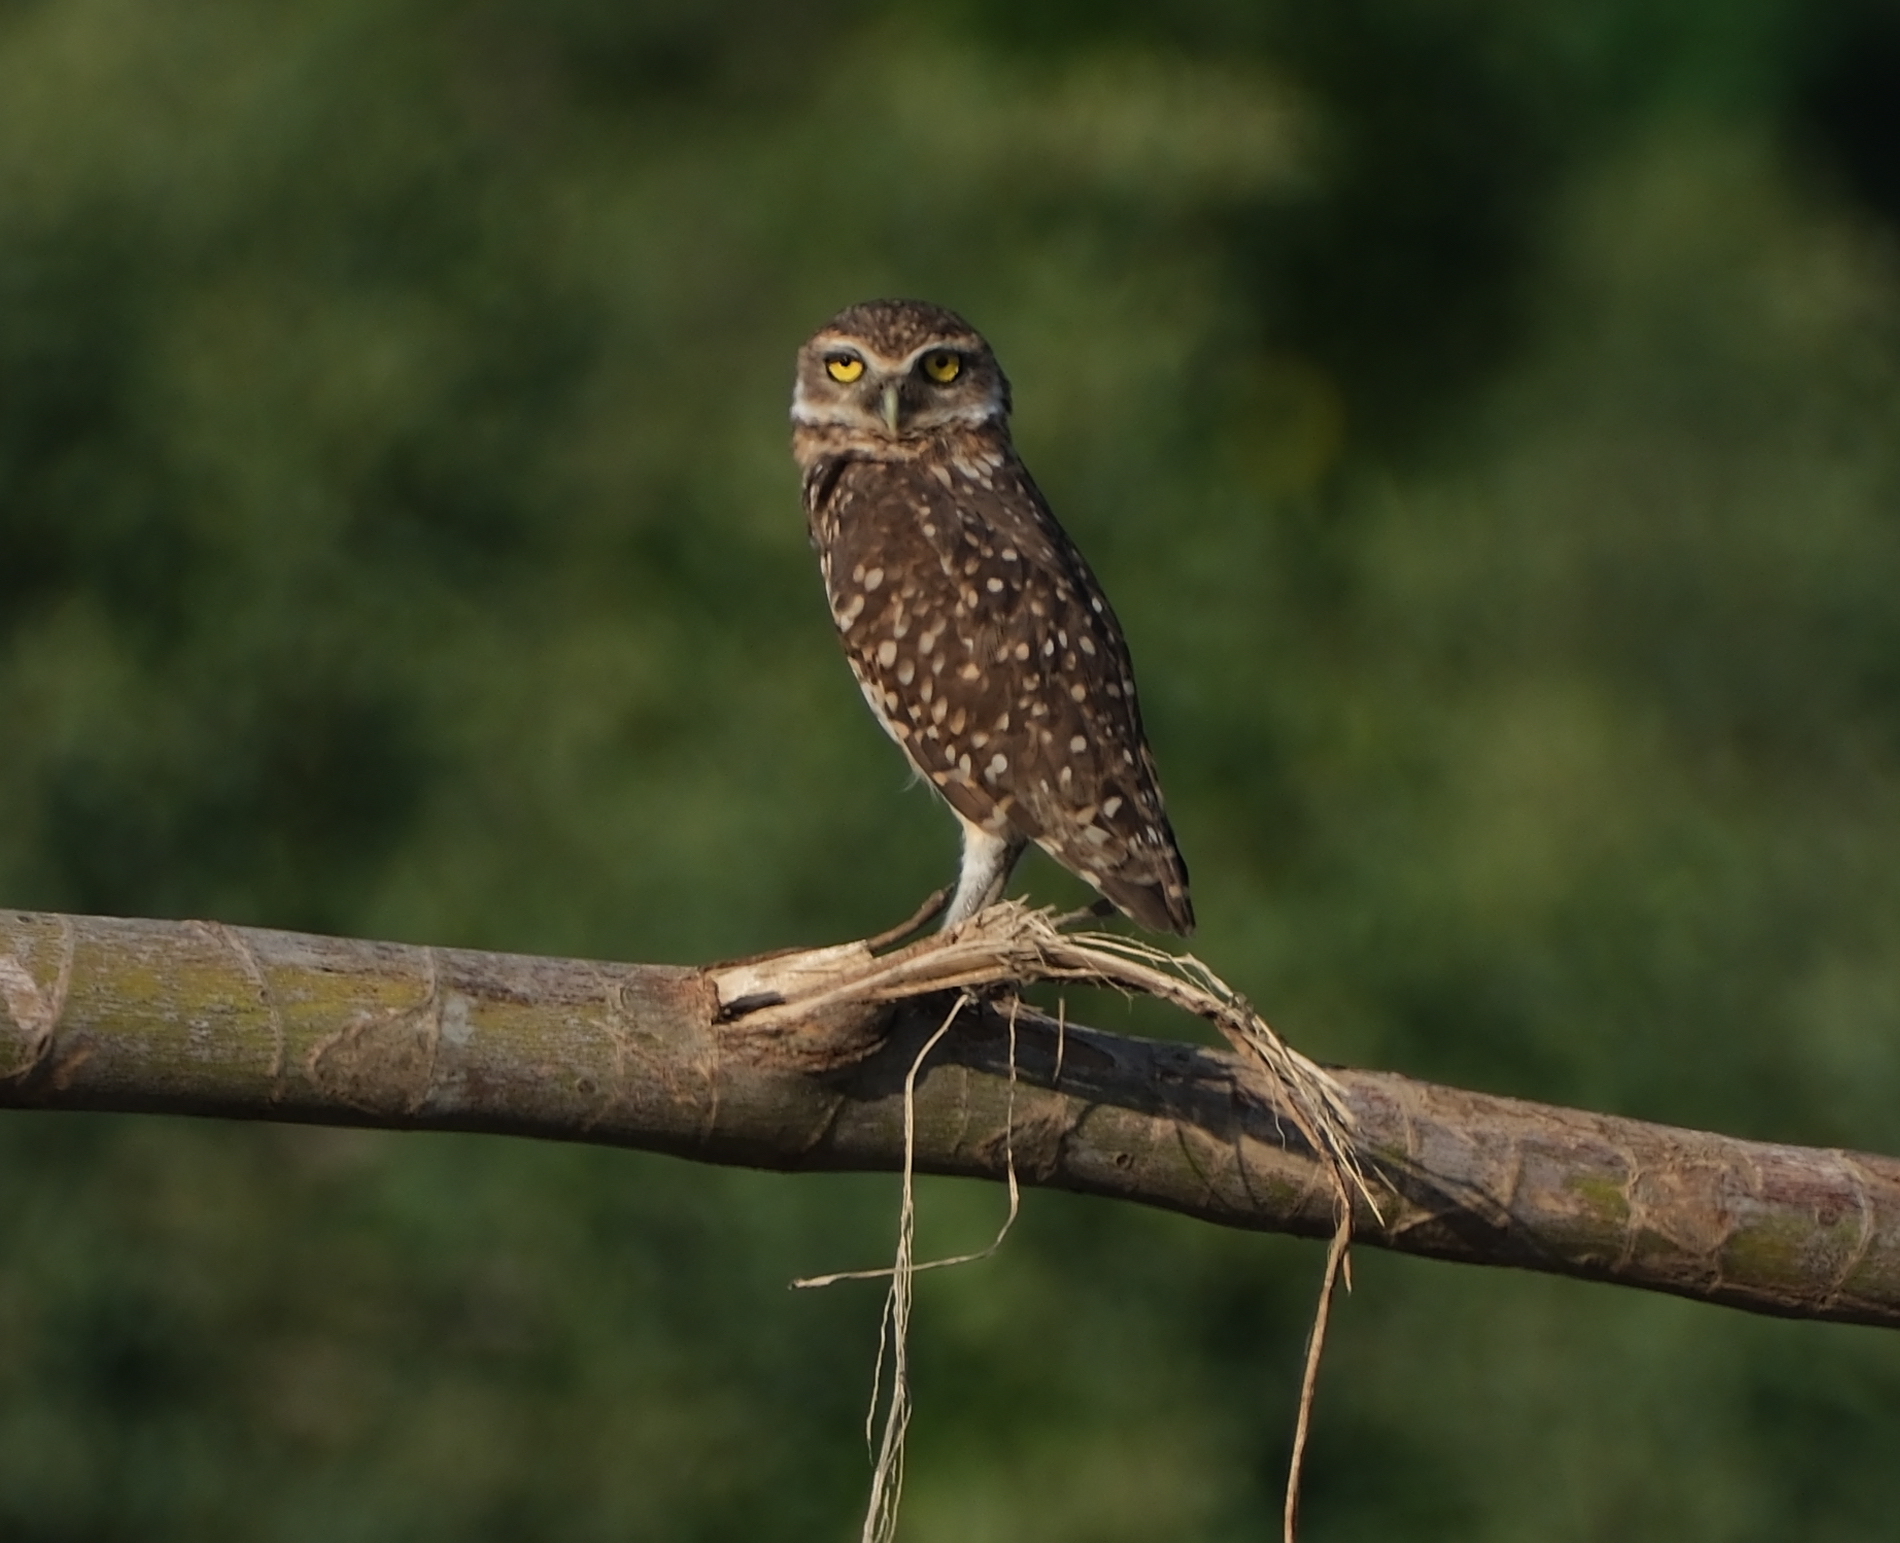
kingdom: Animalia
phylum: Chordata
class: Aves
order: Strigiformes
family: Strigidae
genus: Athene
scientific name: Athene cunicularia
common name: Burrowing owl
